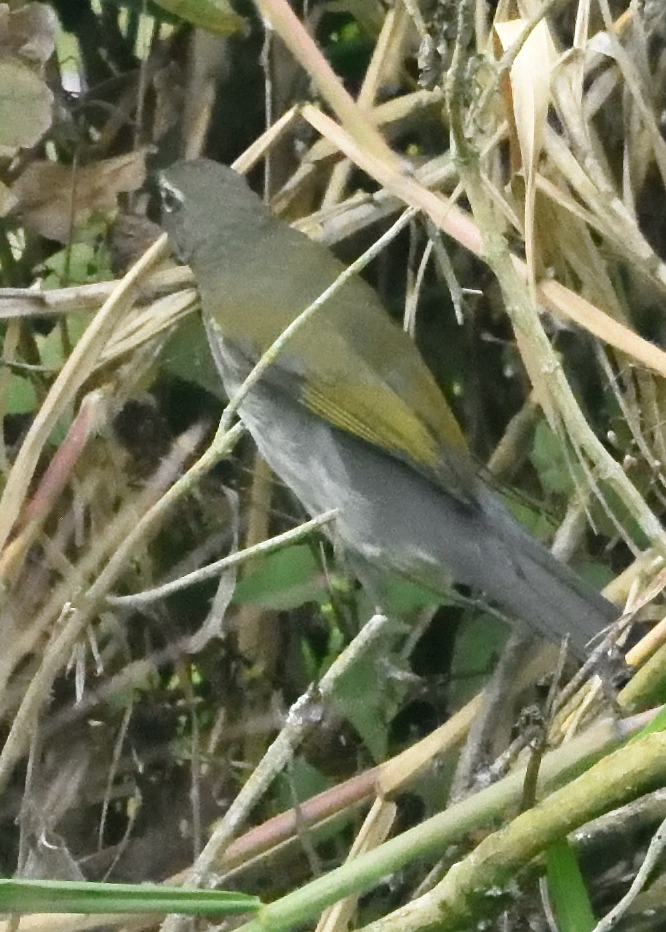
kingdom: Animalia
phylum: Chordata
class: Aves
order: Passeriformes
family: Thraupidae
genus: Saltator
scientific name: Saltator striatipectus
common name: Streaked saltator
